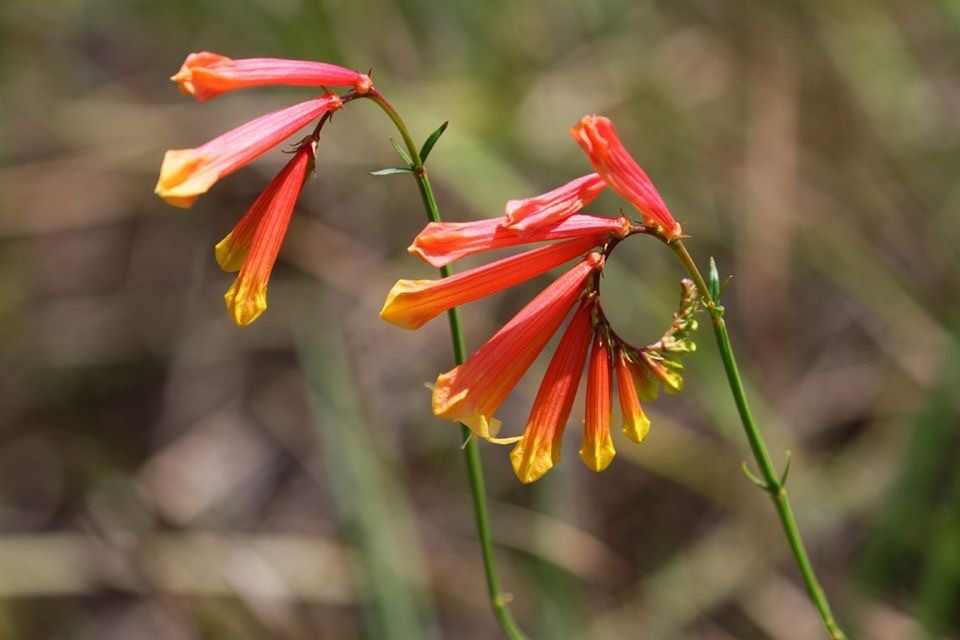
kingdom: Plantae
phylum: Tracheophyta
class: Magnoliopsida
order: Gentianales
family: Loganiaceae
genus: Spigelia
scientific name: Spigelia pulchella
